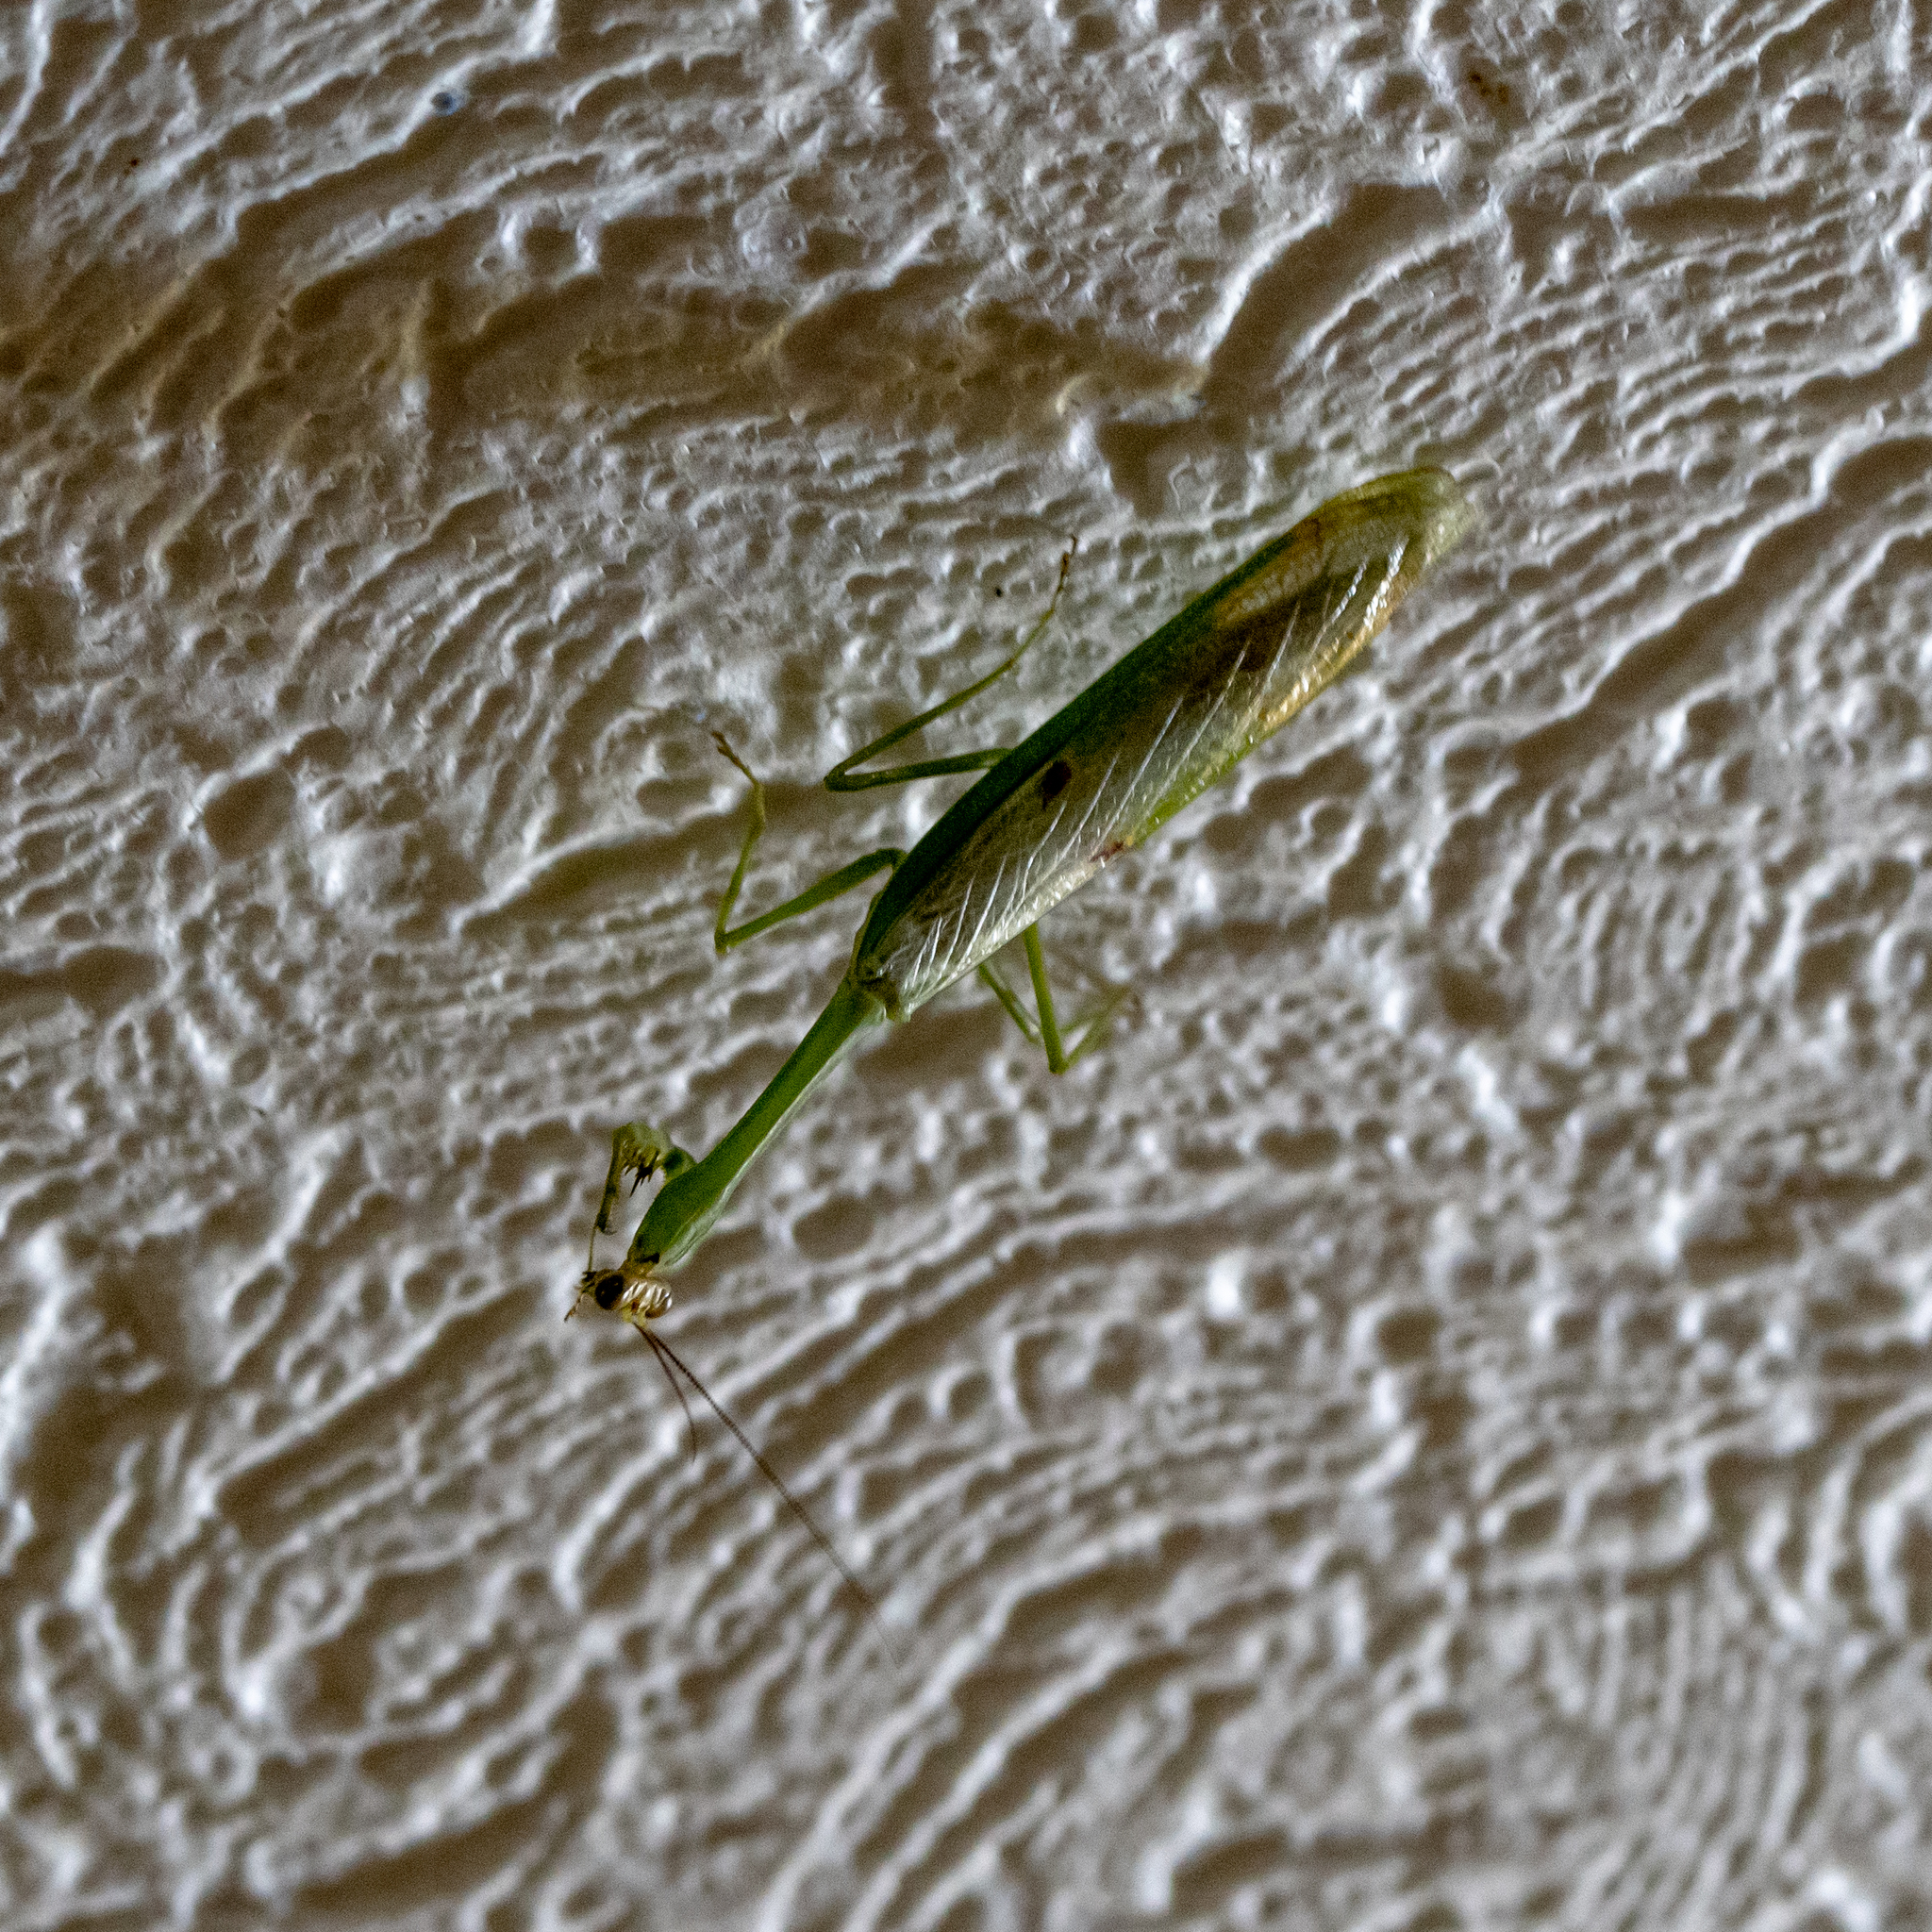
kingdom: Animalia
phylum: Arthropoda
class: Insecta
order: Mantodea
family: Mantidae
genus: Stagmatoptera
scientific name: Stagmatoptera septentrionalis
